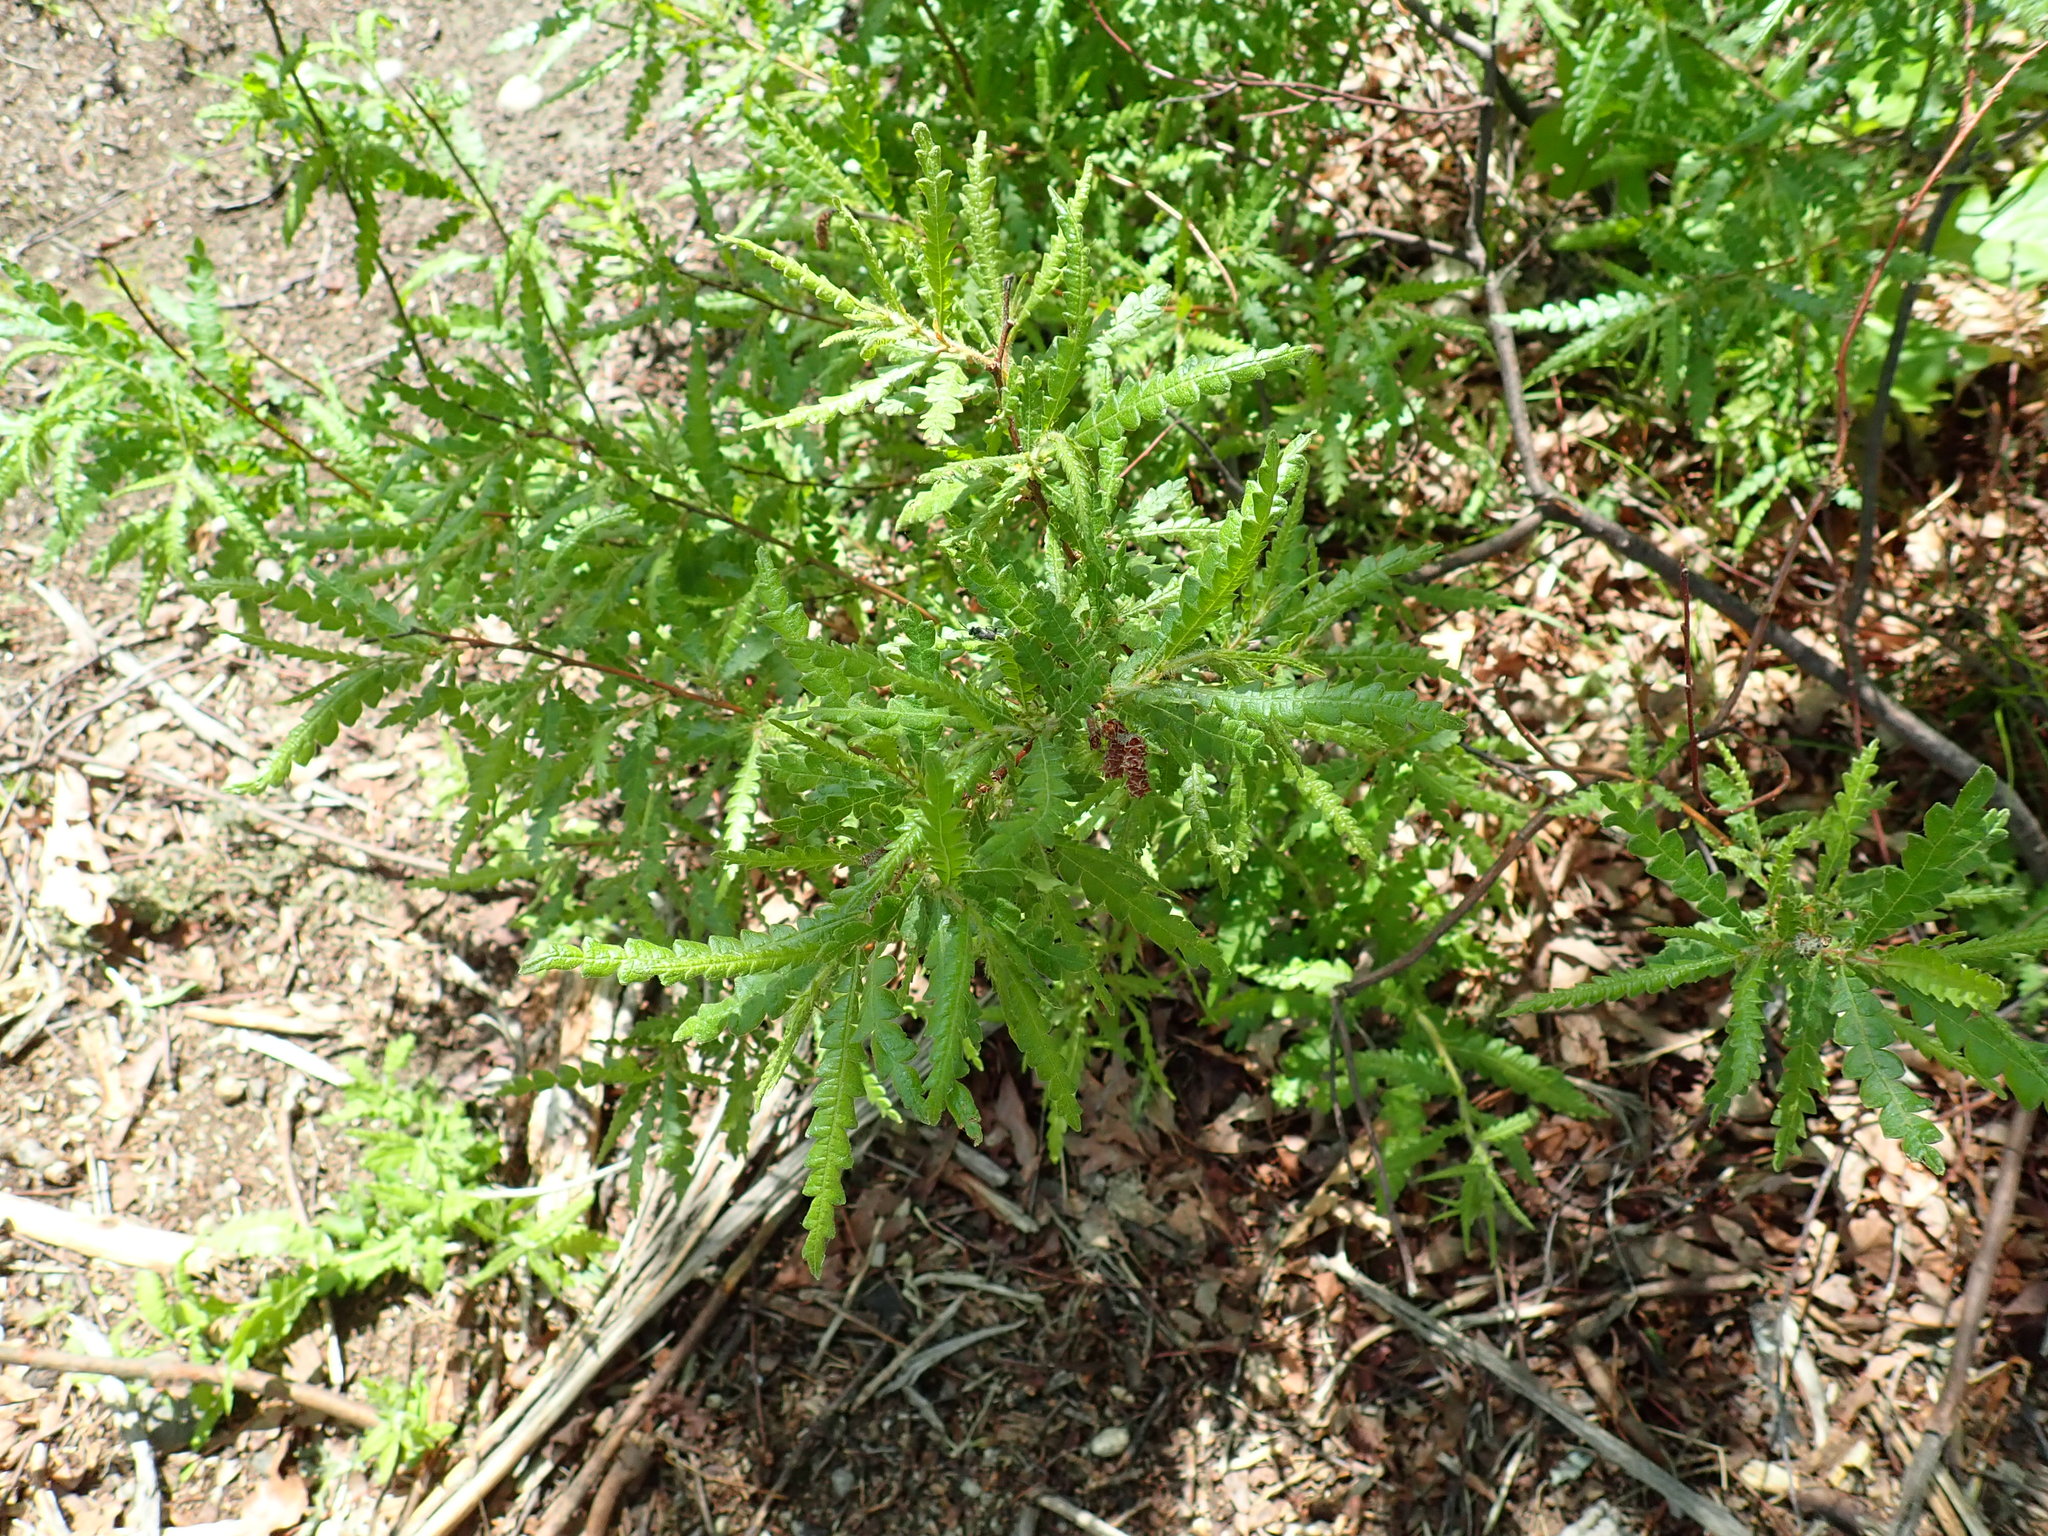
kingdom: Plantae
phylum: Tracheophyta
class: Magnoliopsida
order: Fagales
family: Myricaceae
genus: Comptonia
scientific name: Comptonia peregrina
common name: Sweet-fern
